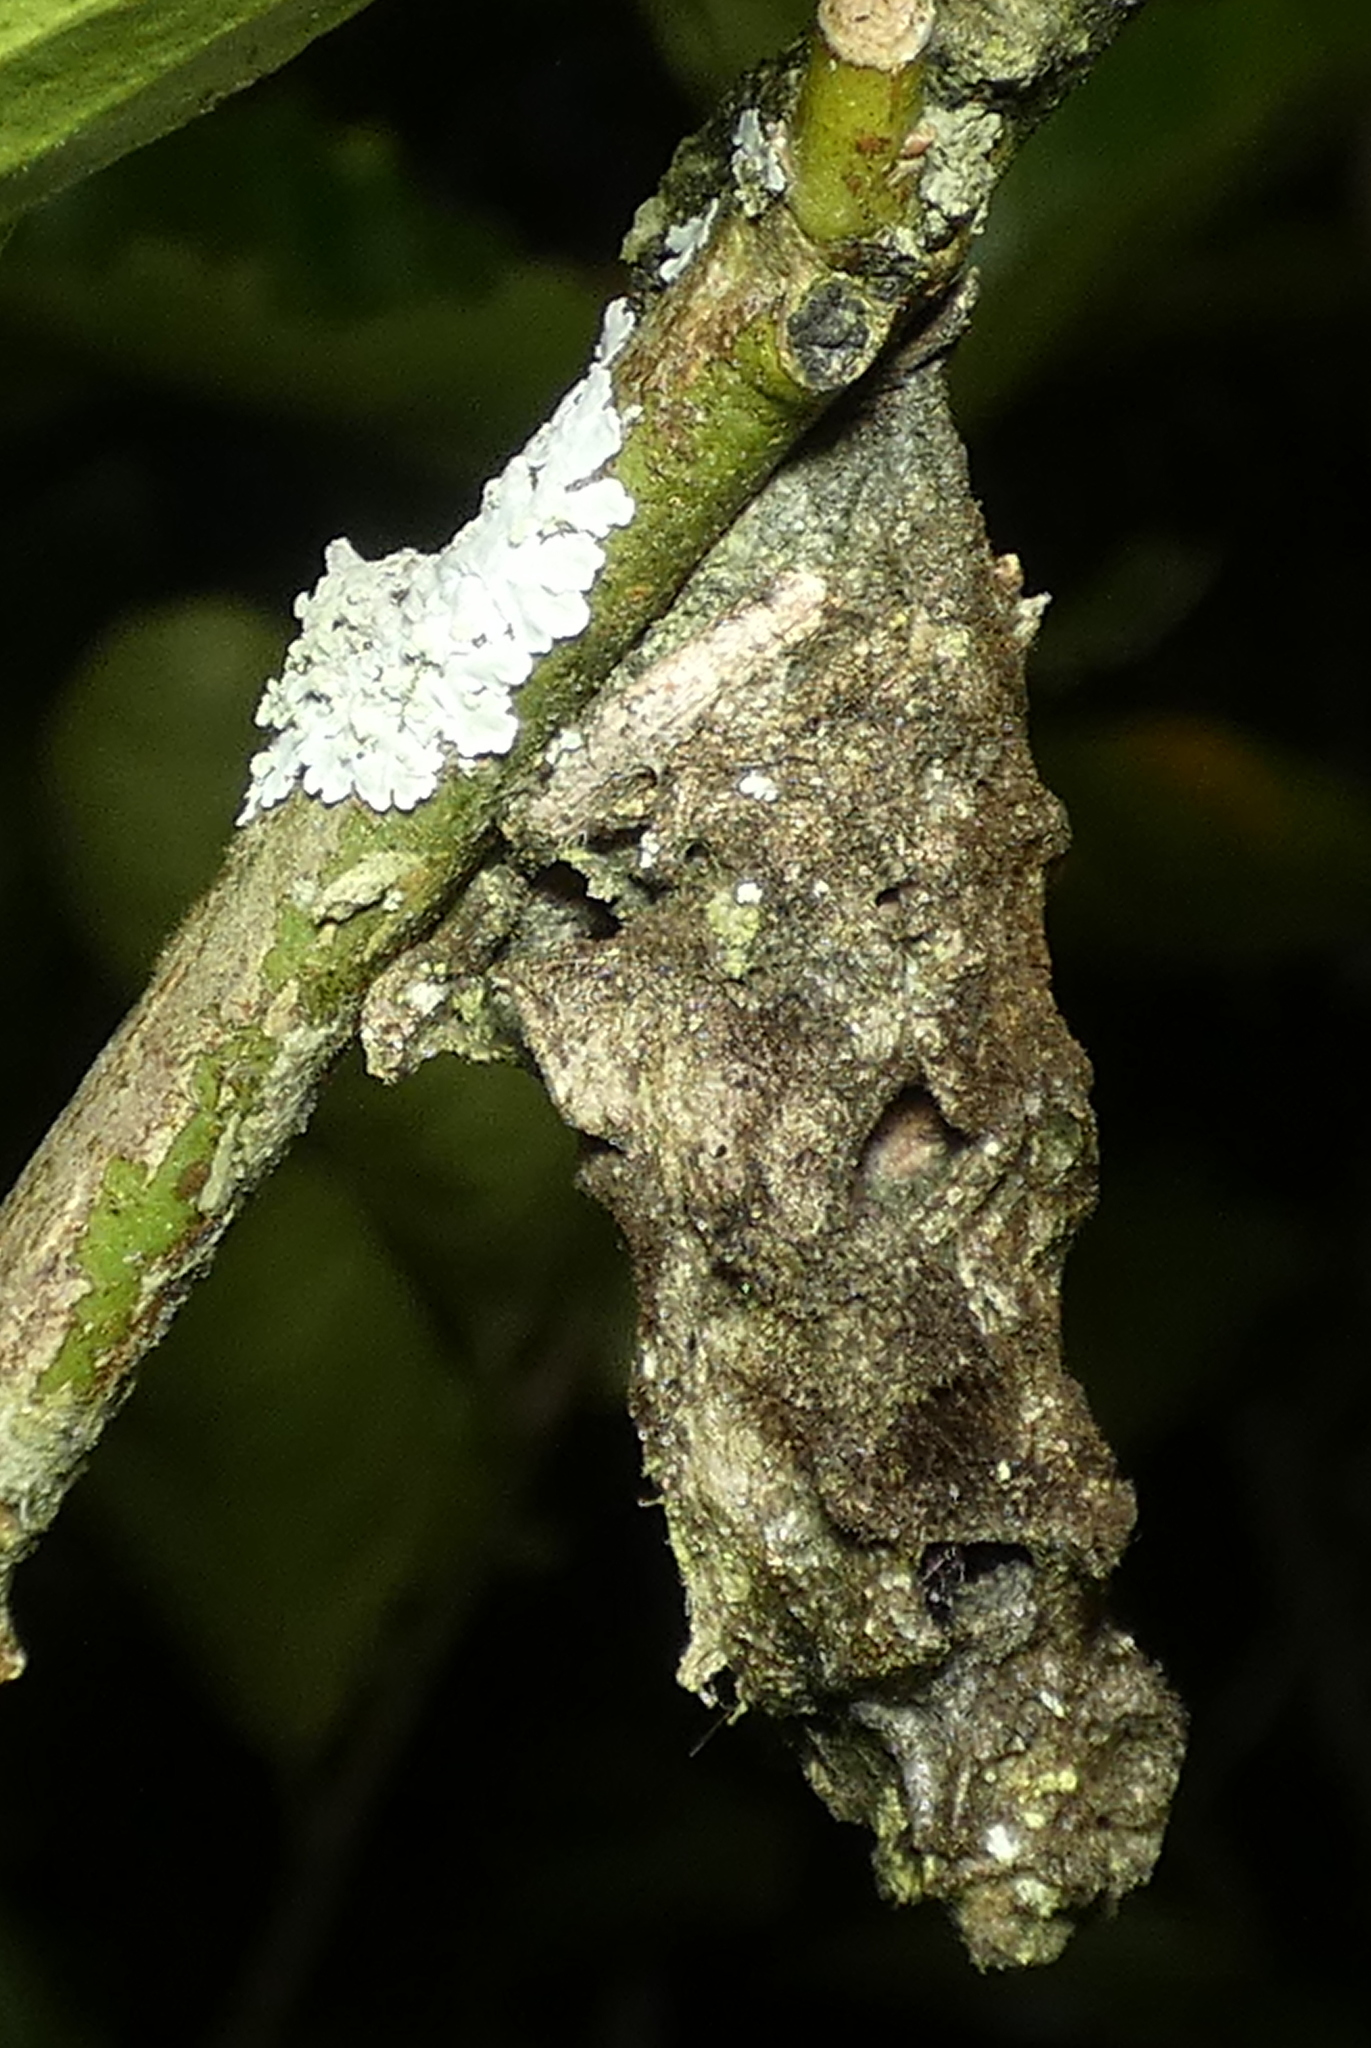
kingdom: Animalia
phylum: Arthropoda
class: Insecta
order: Hymenoptera
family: Eumenidae
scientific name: Eumenidae
